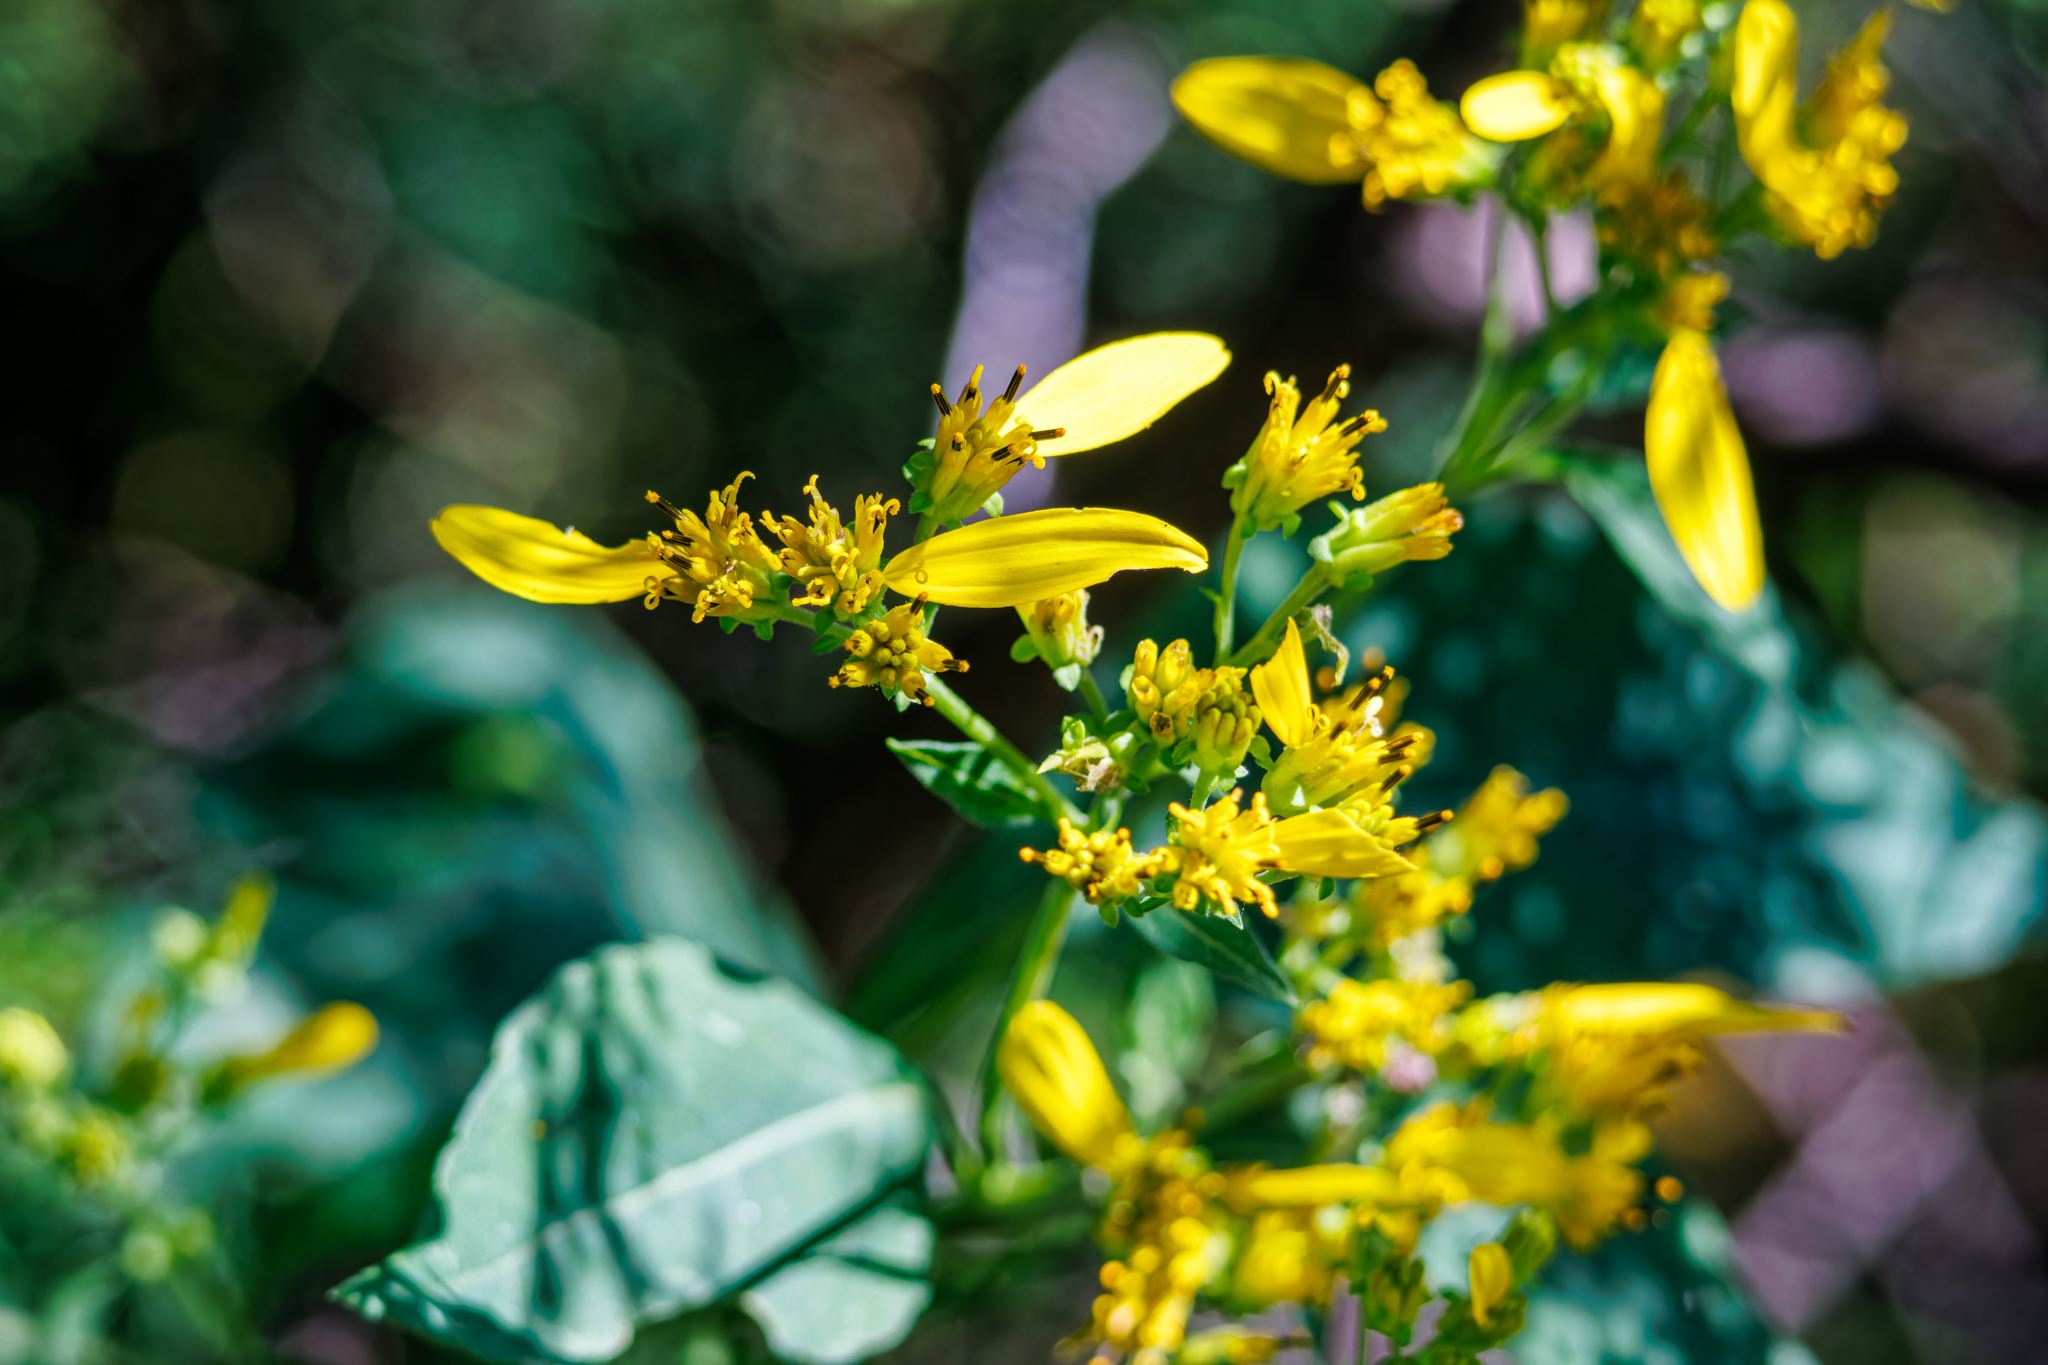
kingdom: Plantae
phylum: Tracheophyta
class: Magnoliopsida
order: Asterales
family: Asteraceae
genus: Verbesina
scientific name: Verbesina occidentalis
